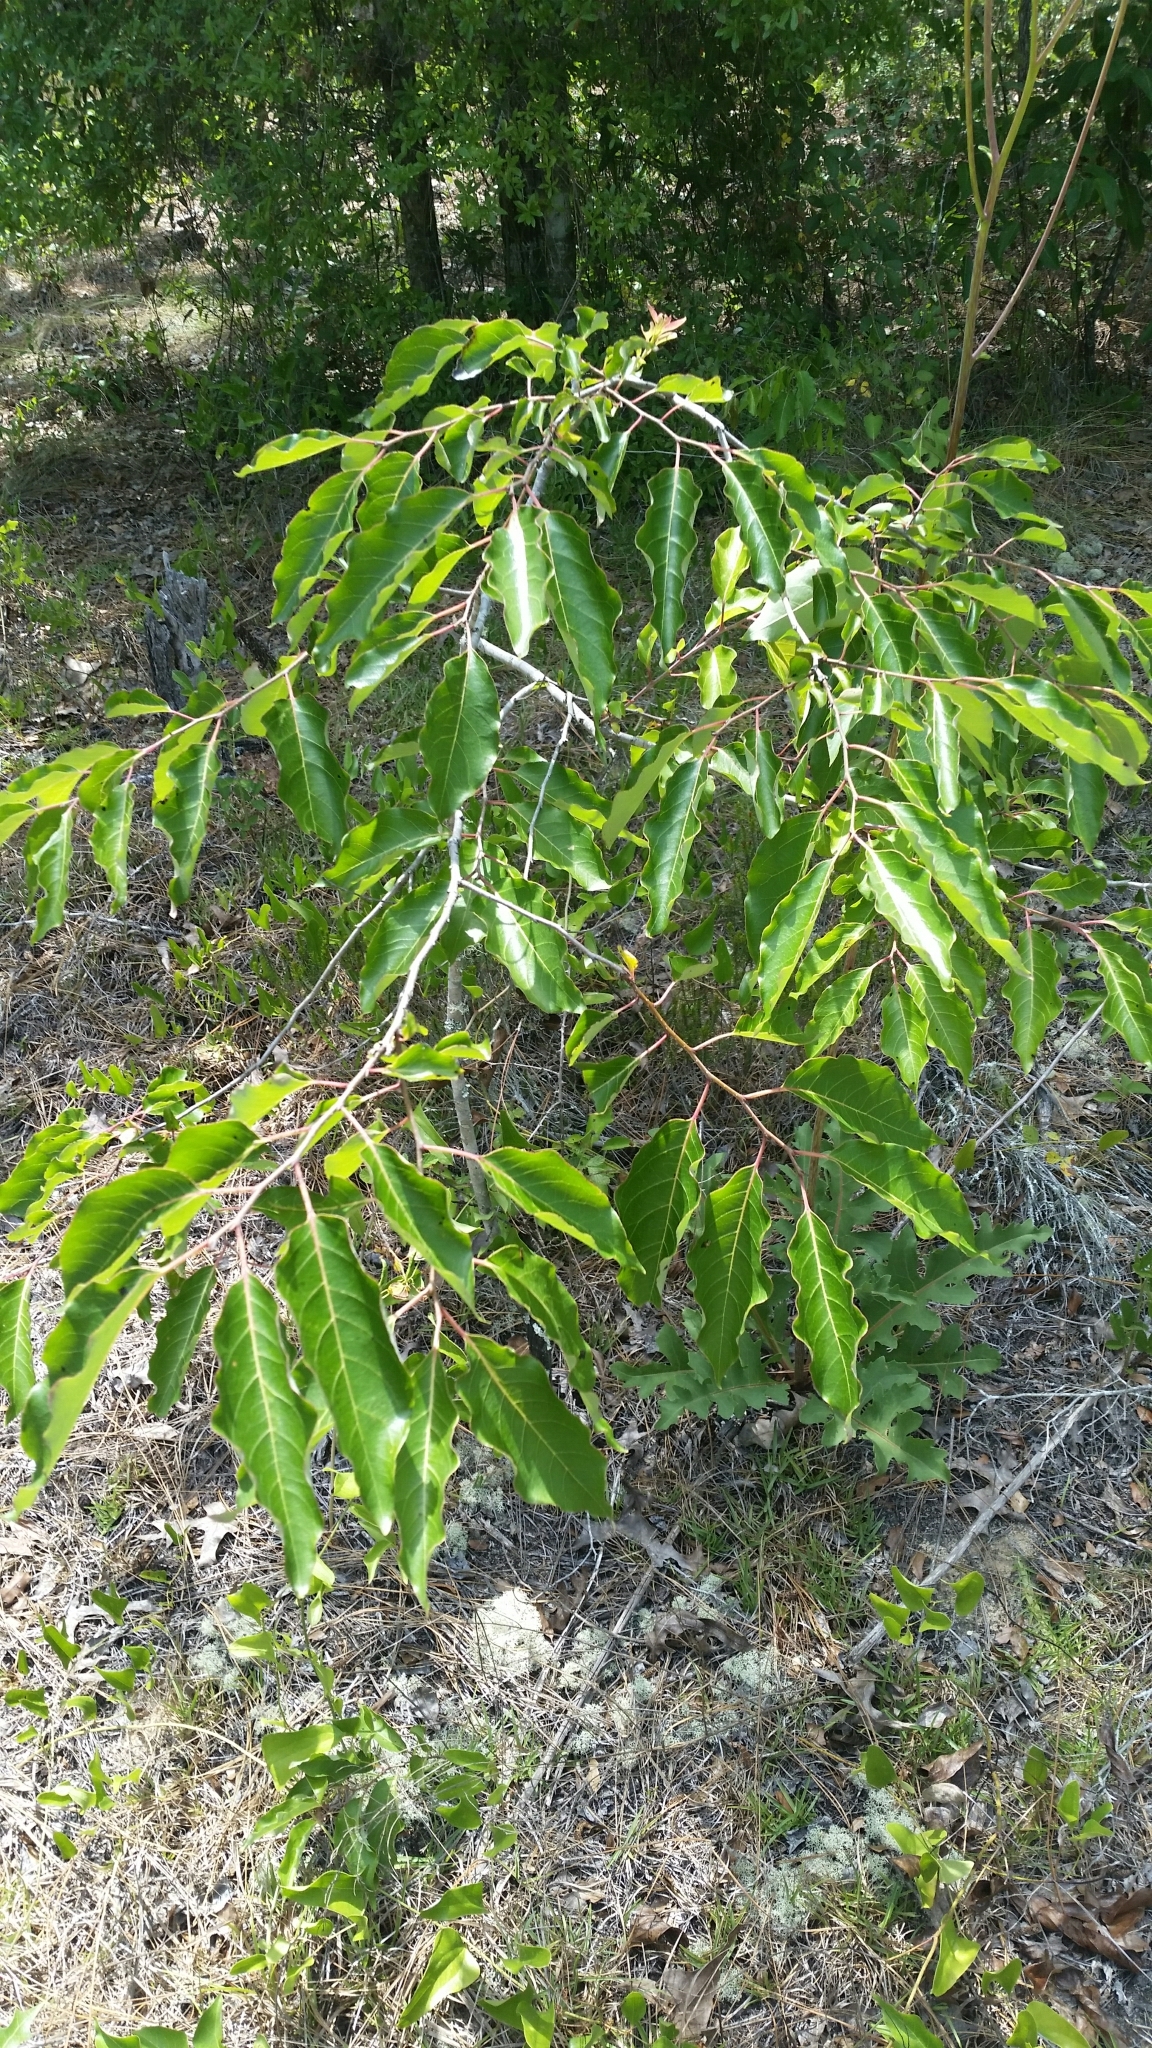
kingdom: Plantae
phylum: Tracheophyta
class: Magnoliopsida
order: Ericales
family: Ebenaceae
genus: Diospyros
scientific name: Diospyros virginiana
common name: Persimmon
